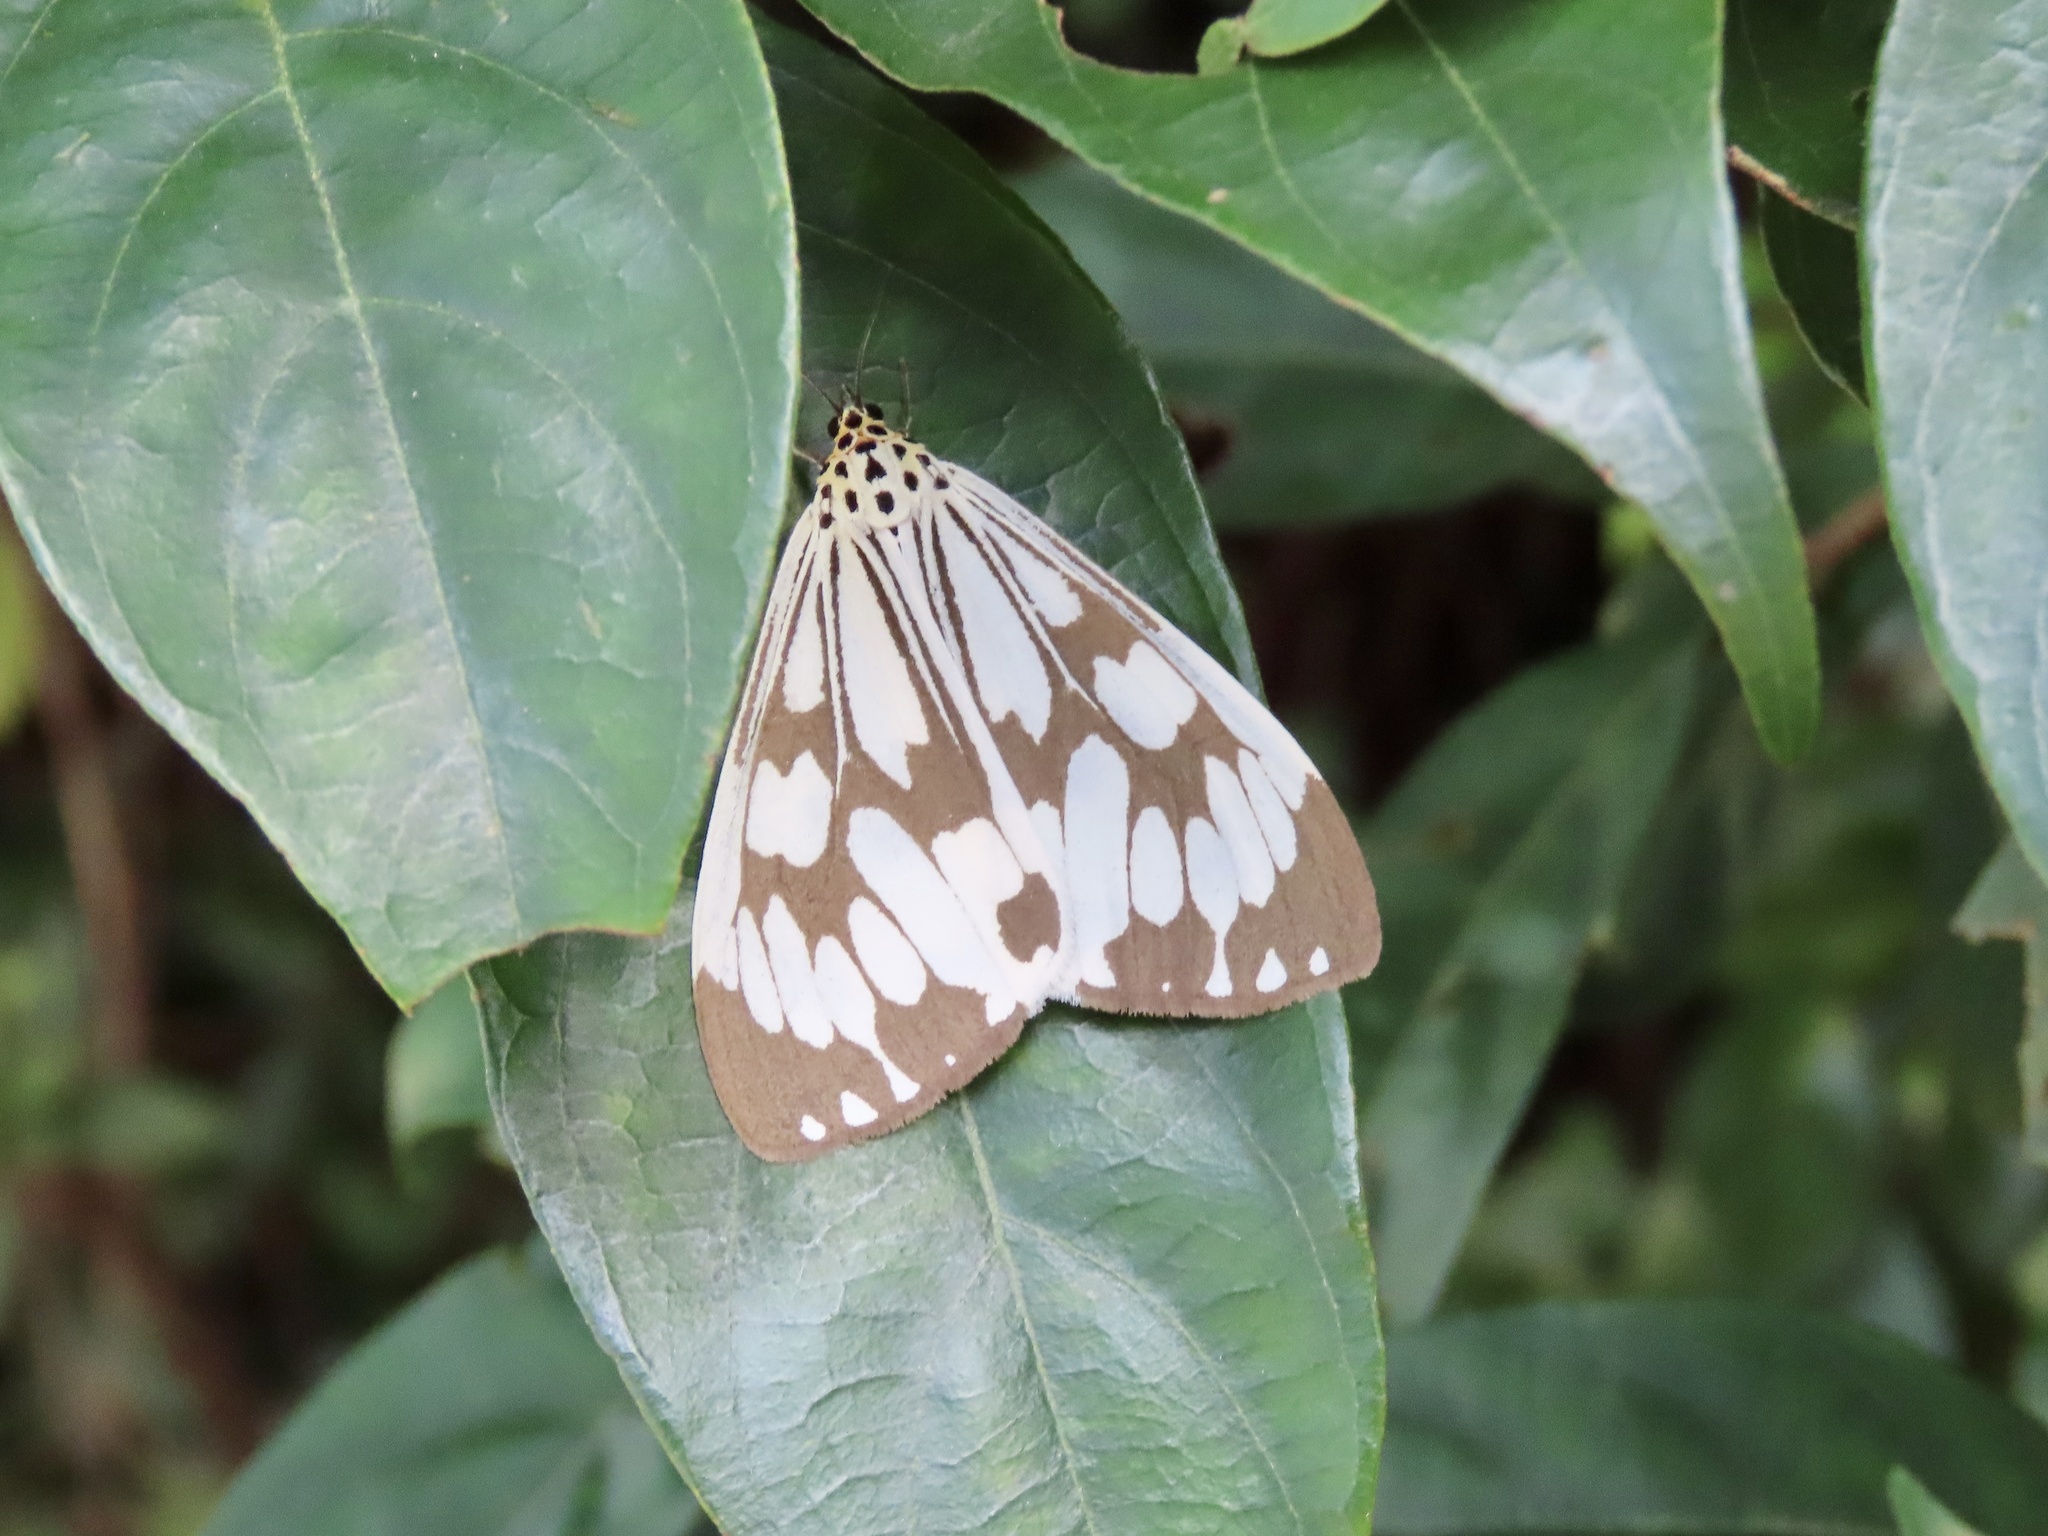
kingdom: Animalia
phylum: Arthropoda
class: Insecta
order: Lepidoptera
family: Erebidae
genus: Nyctemera
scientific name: Nyctemera adversata
